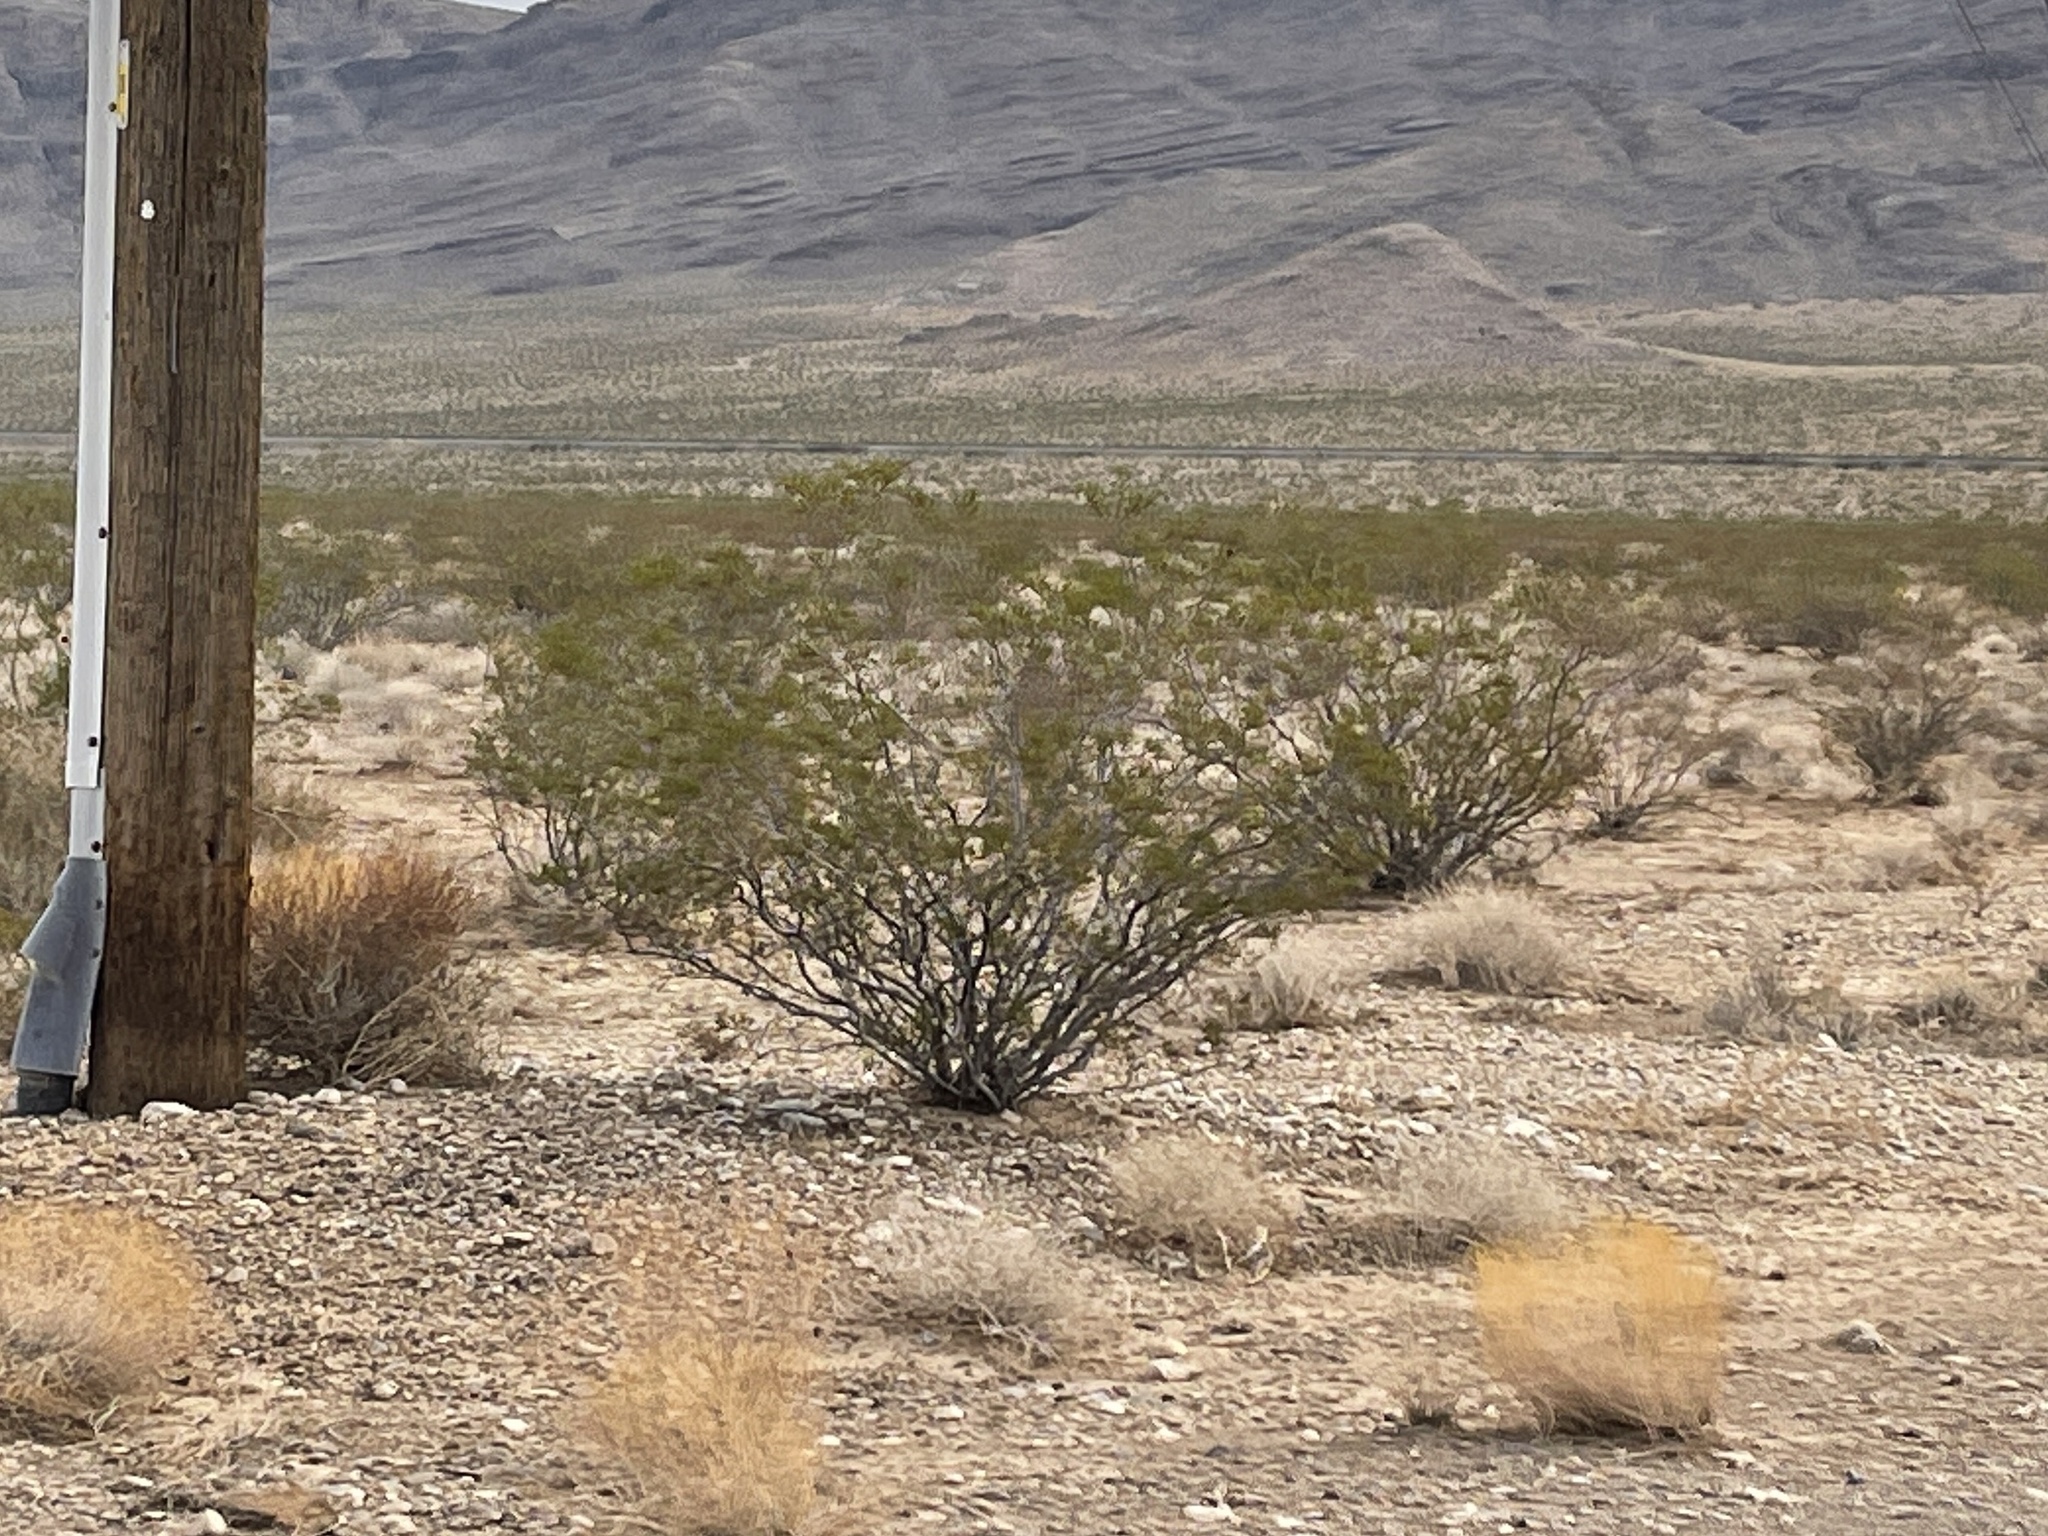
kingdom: Plantae
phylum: Tracheophyta
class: Magnoliopsida
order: Zygophyllales
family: Zygophyllaceae
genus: Larrea
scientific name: Larrea tridentata
